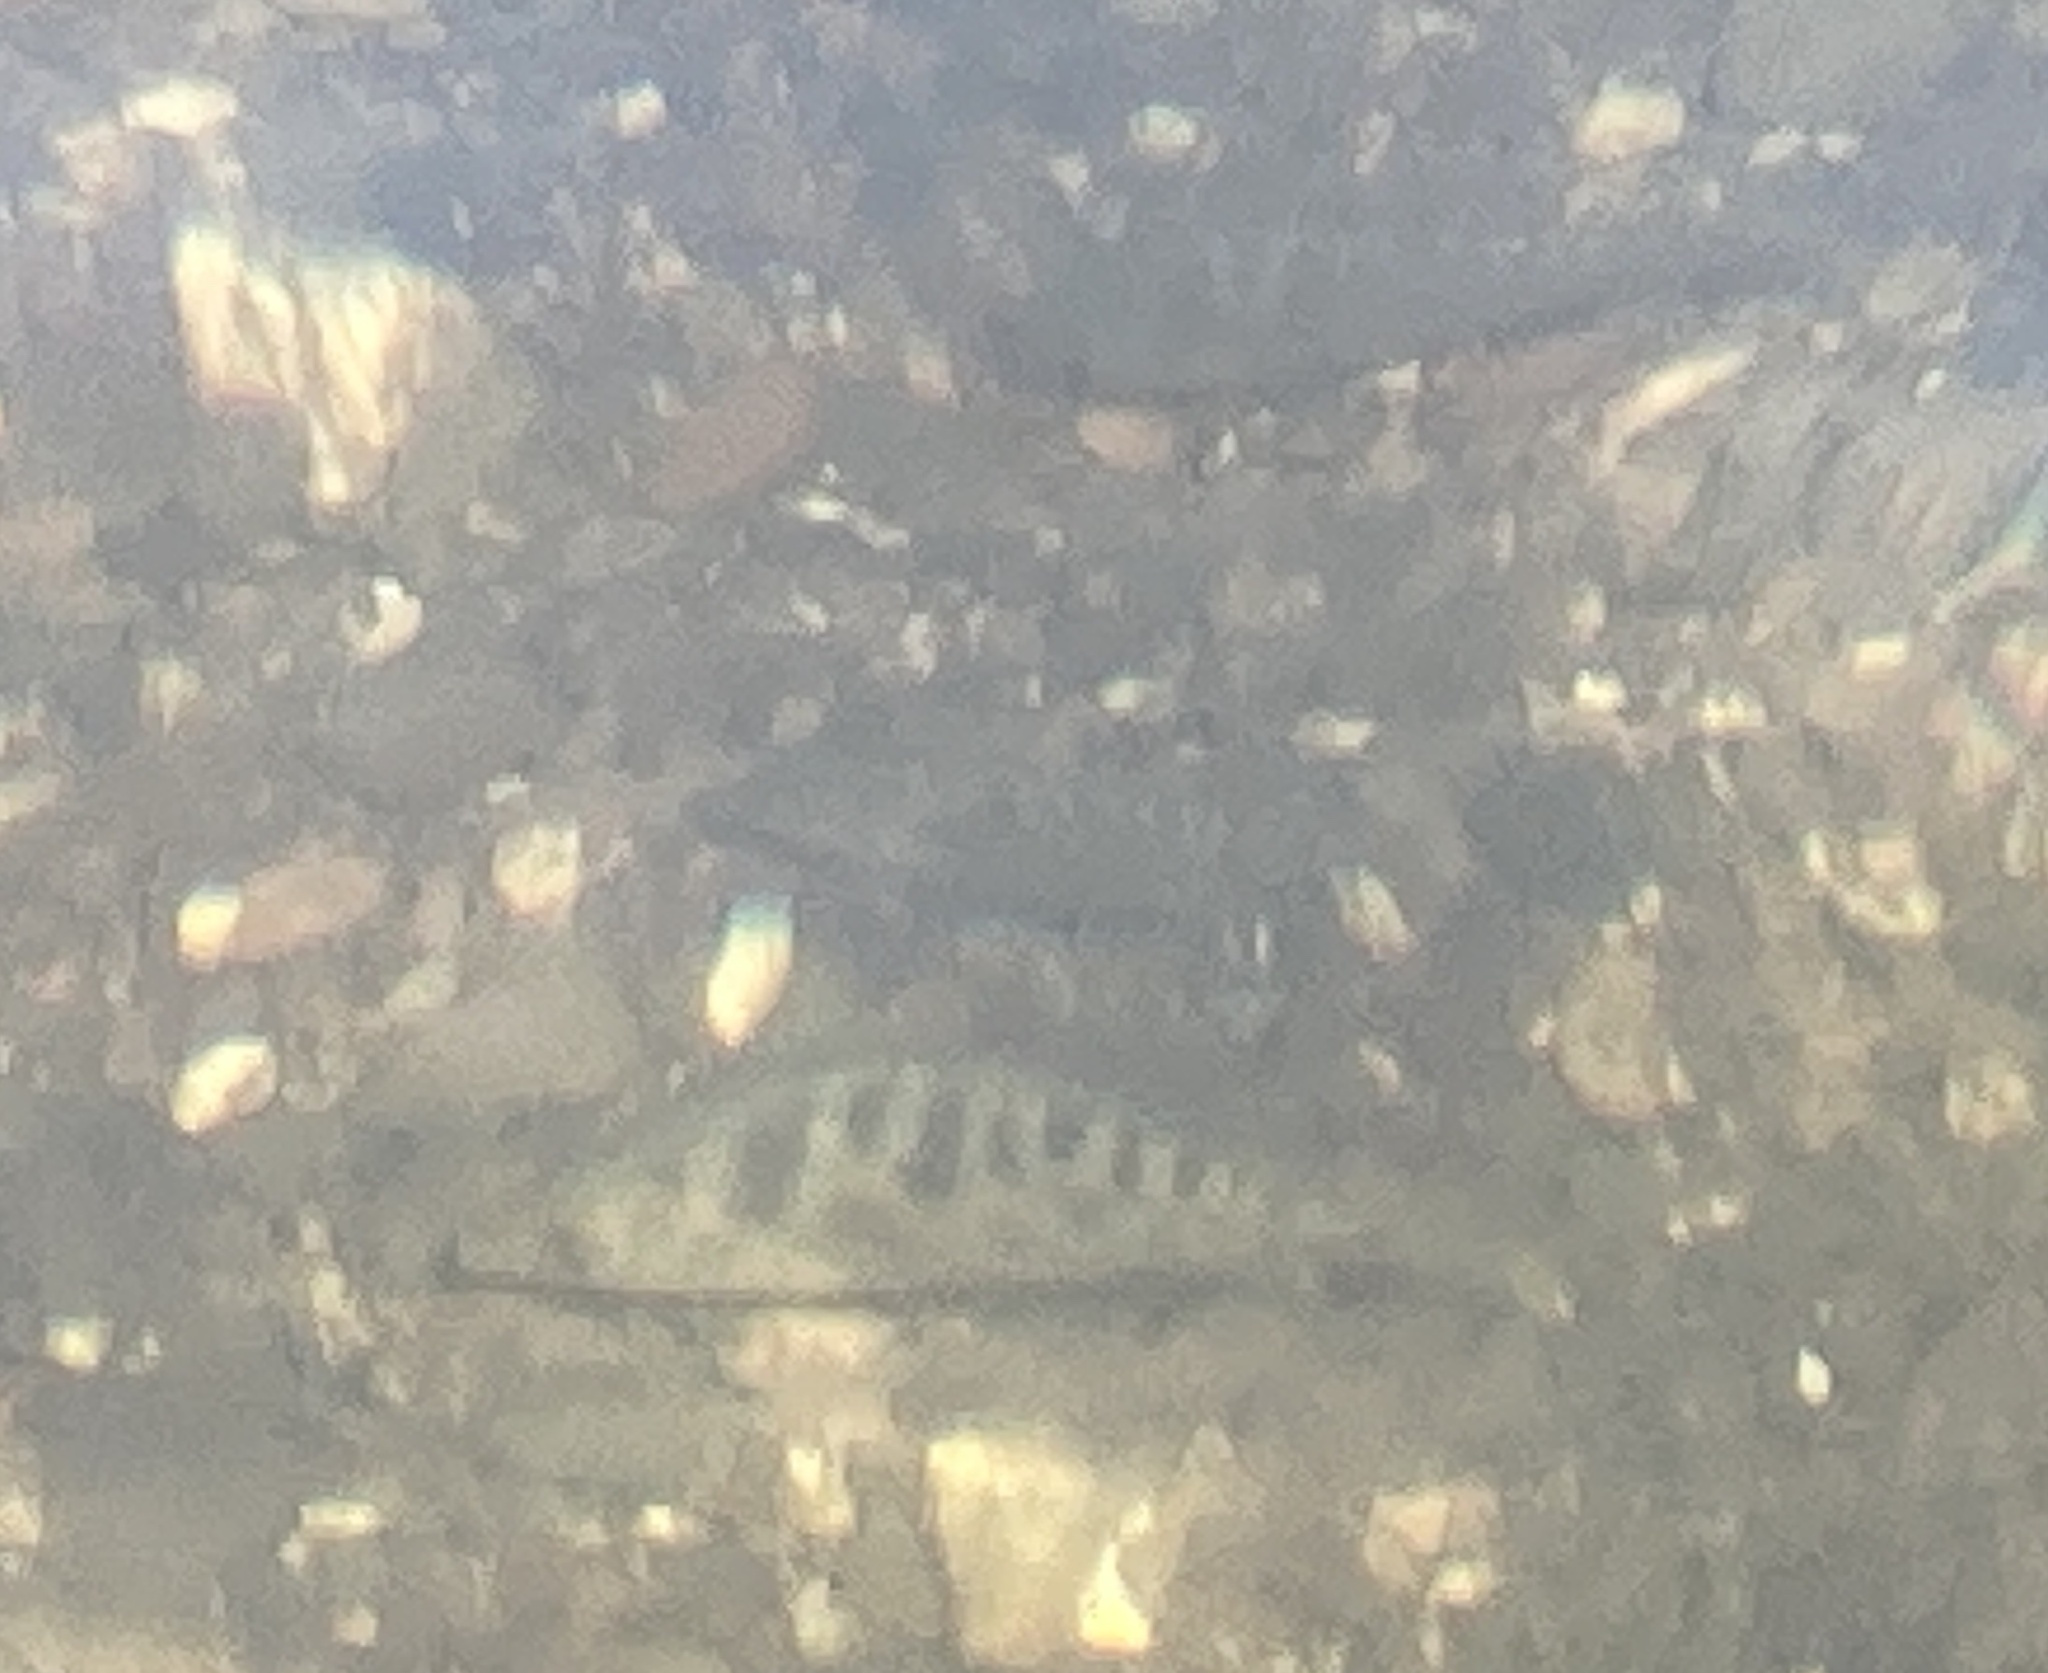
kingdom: Animalia
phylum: Chordata
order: Perciformes
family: Embiotocidae
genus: Hysterocarpus
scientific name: Hysterocarpus traskii
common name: Russian river tule perch
